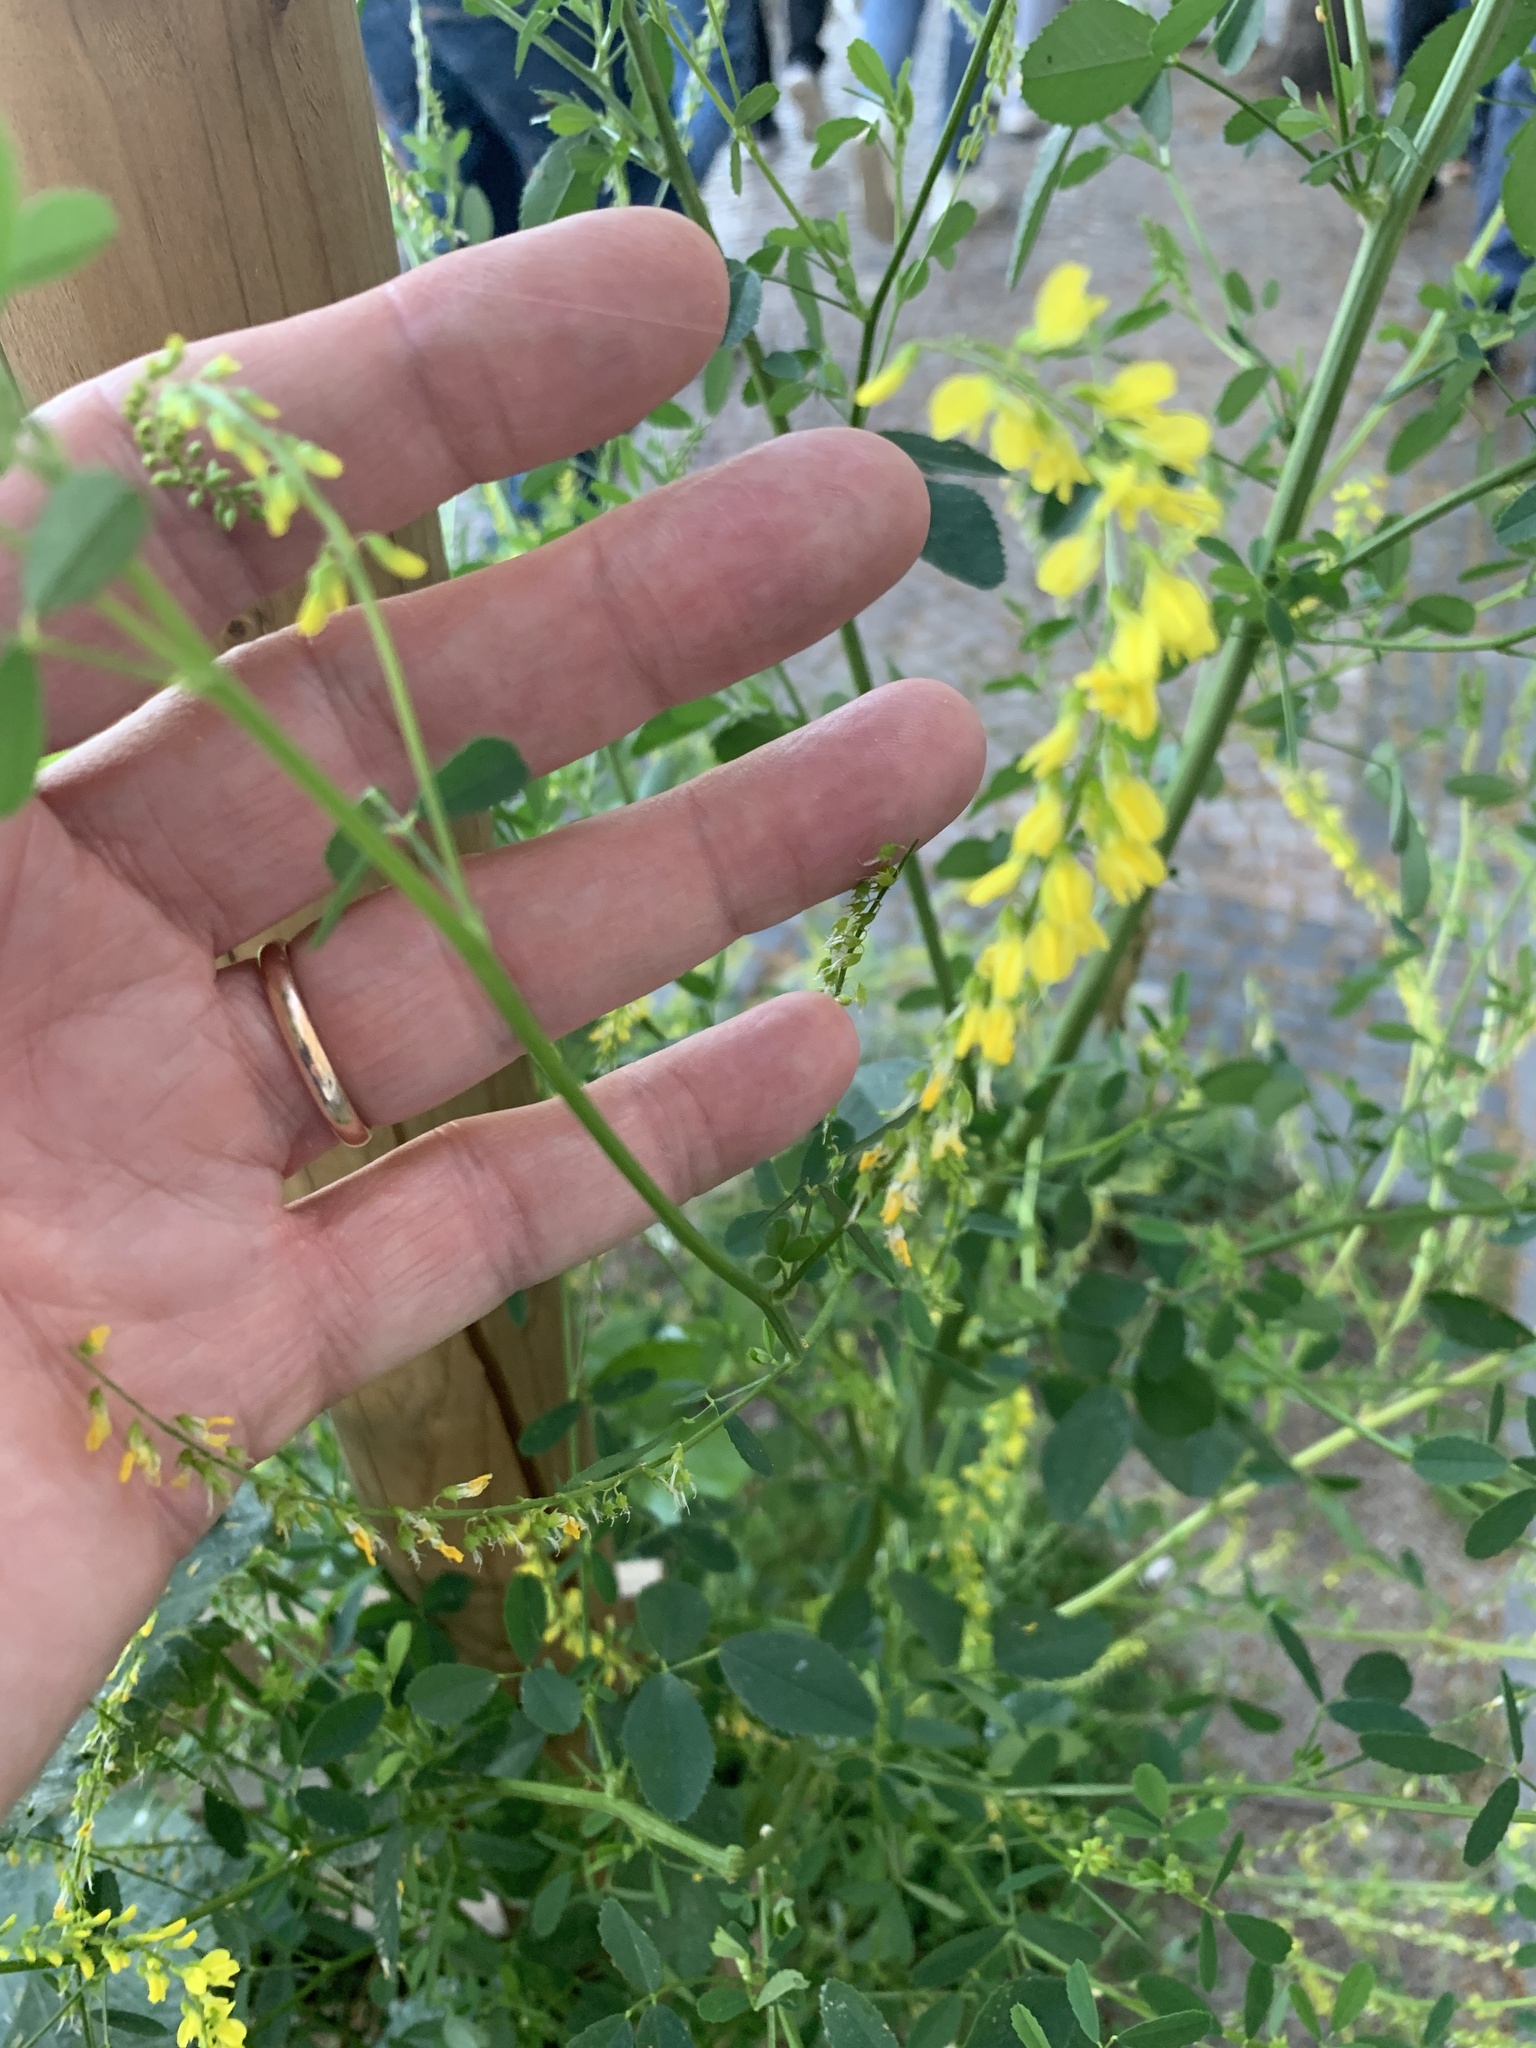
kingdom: Plantae
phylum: Tracheophyta
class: Magnoliopsida
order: Fabales
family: Fabaceae
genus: Melilotus
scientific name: Melilotus officinalis
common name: Sweetclover
